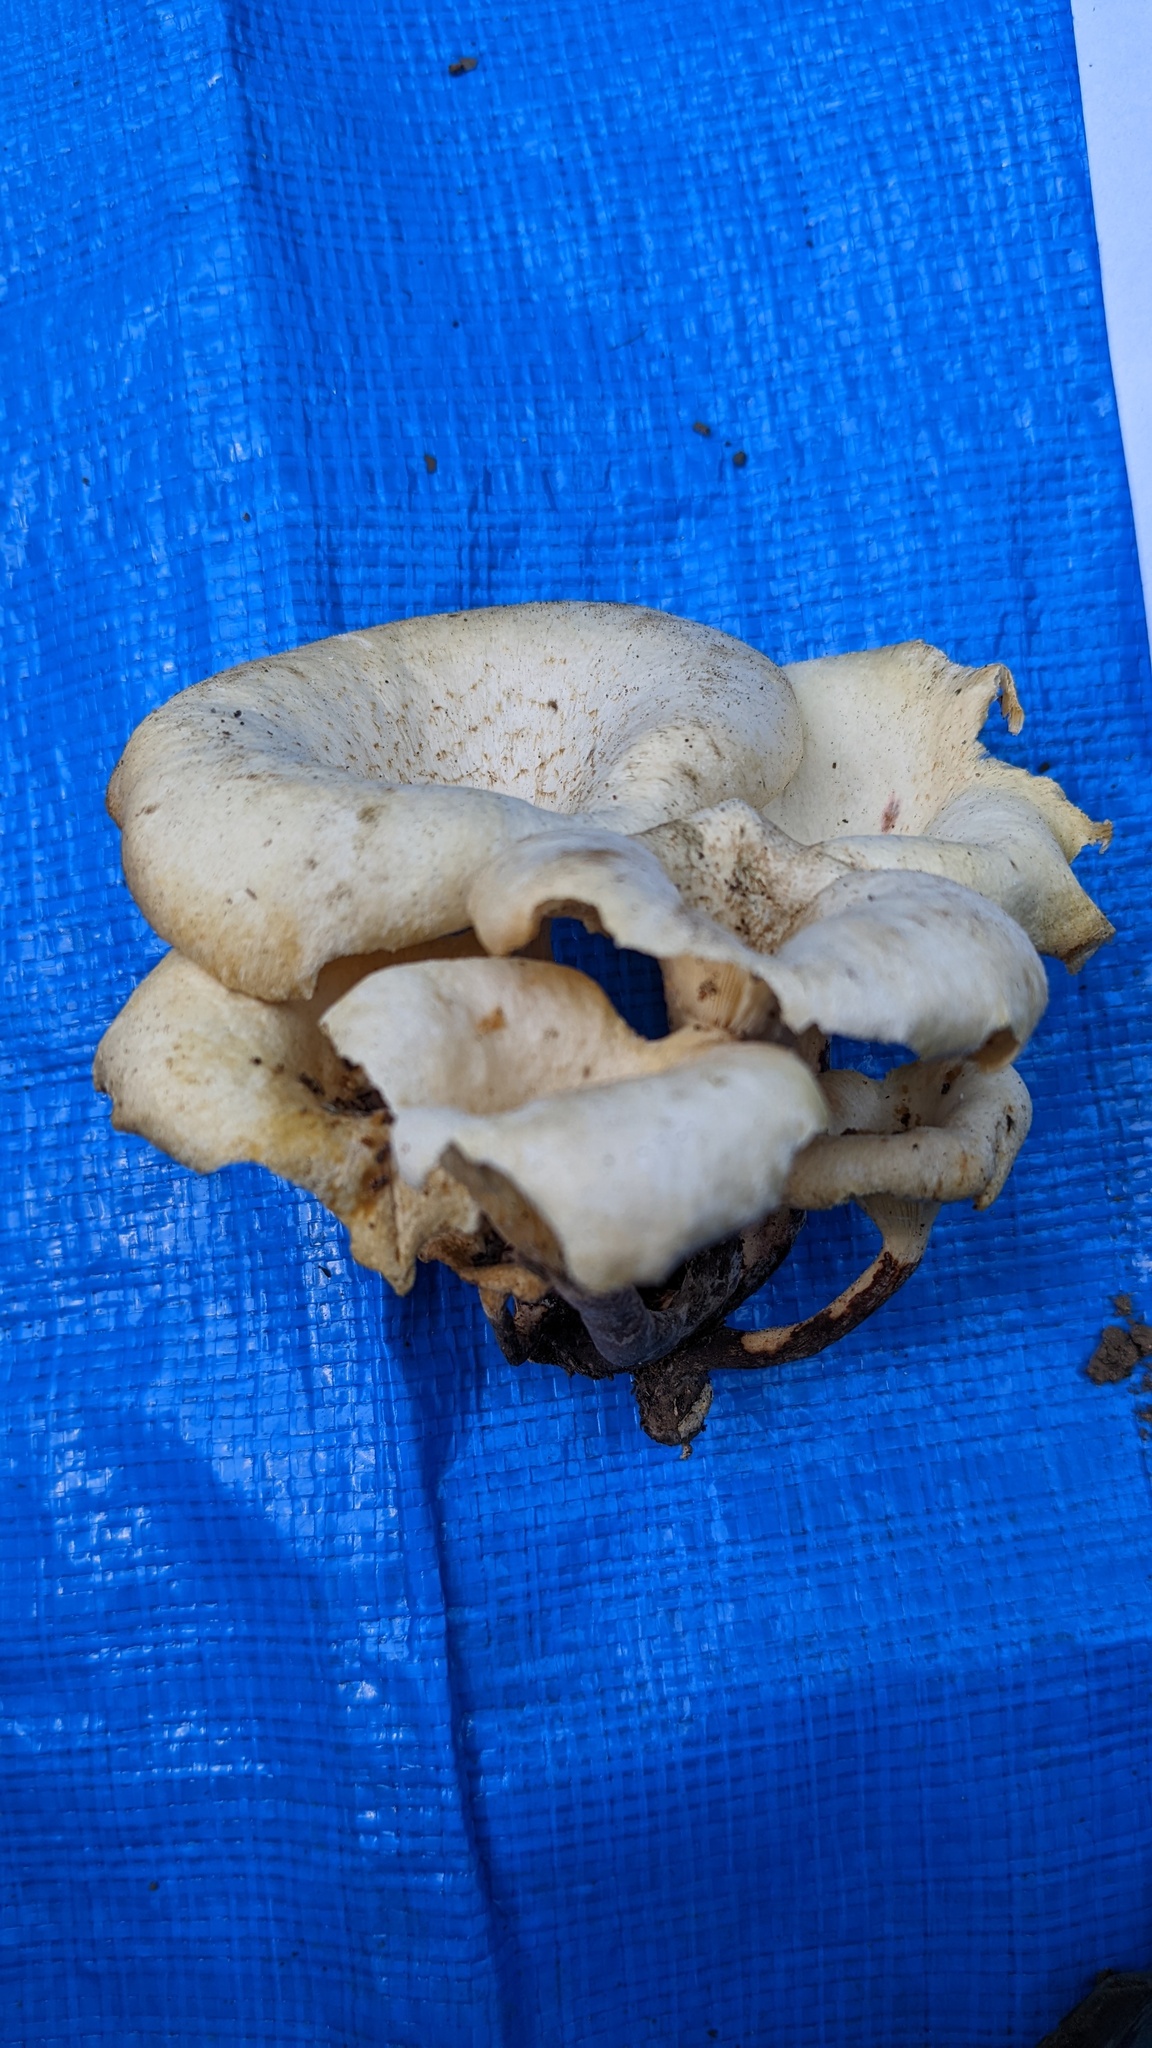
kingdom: Fungi
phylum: Basidiomycota
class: Agaricomycetes
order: Polyporales
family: Polyporaceae
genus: Lentinus
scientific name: Lentinus squarrosulus
